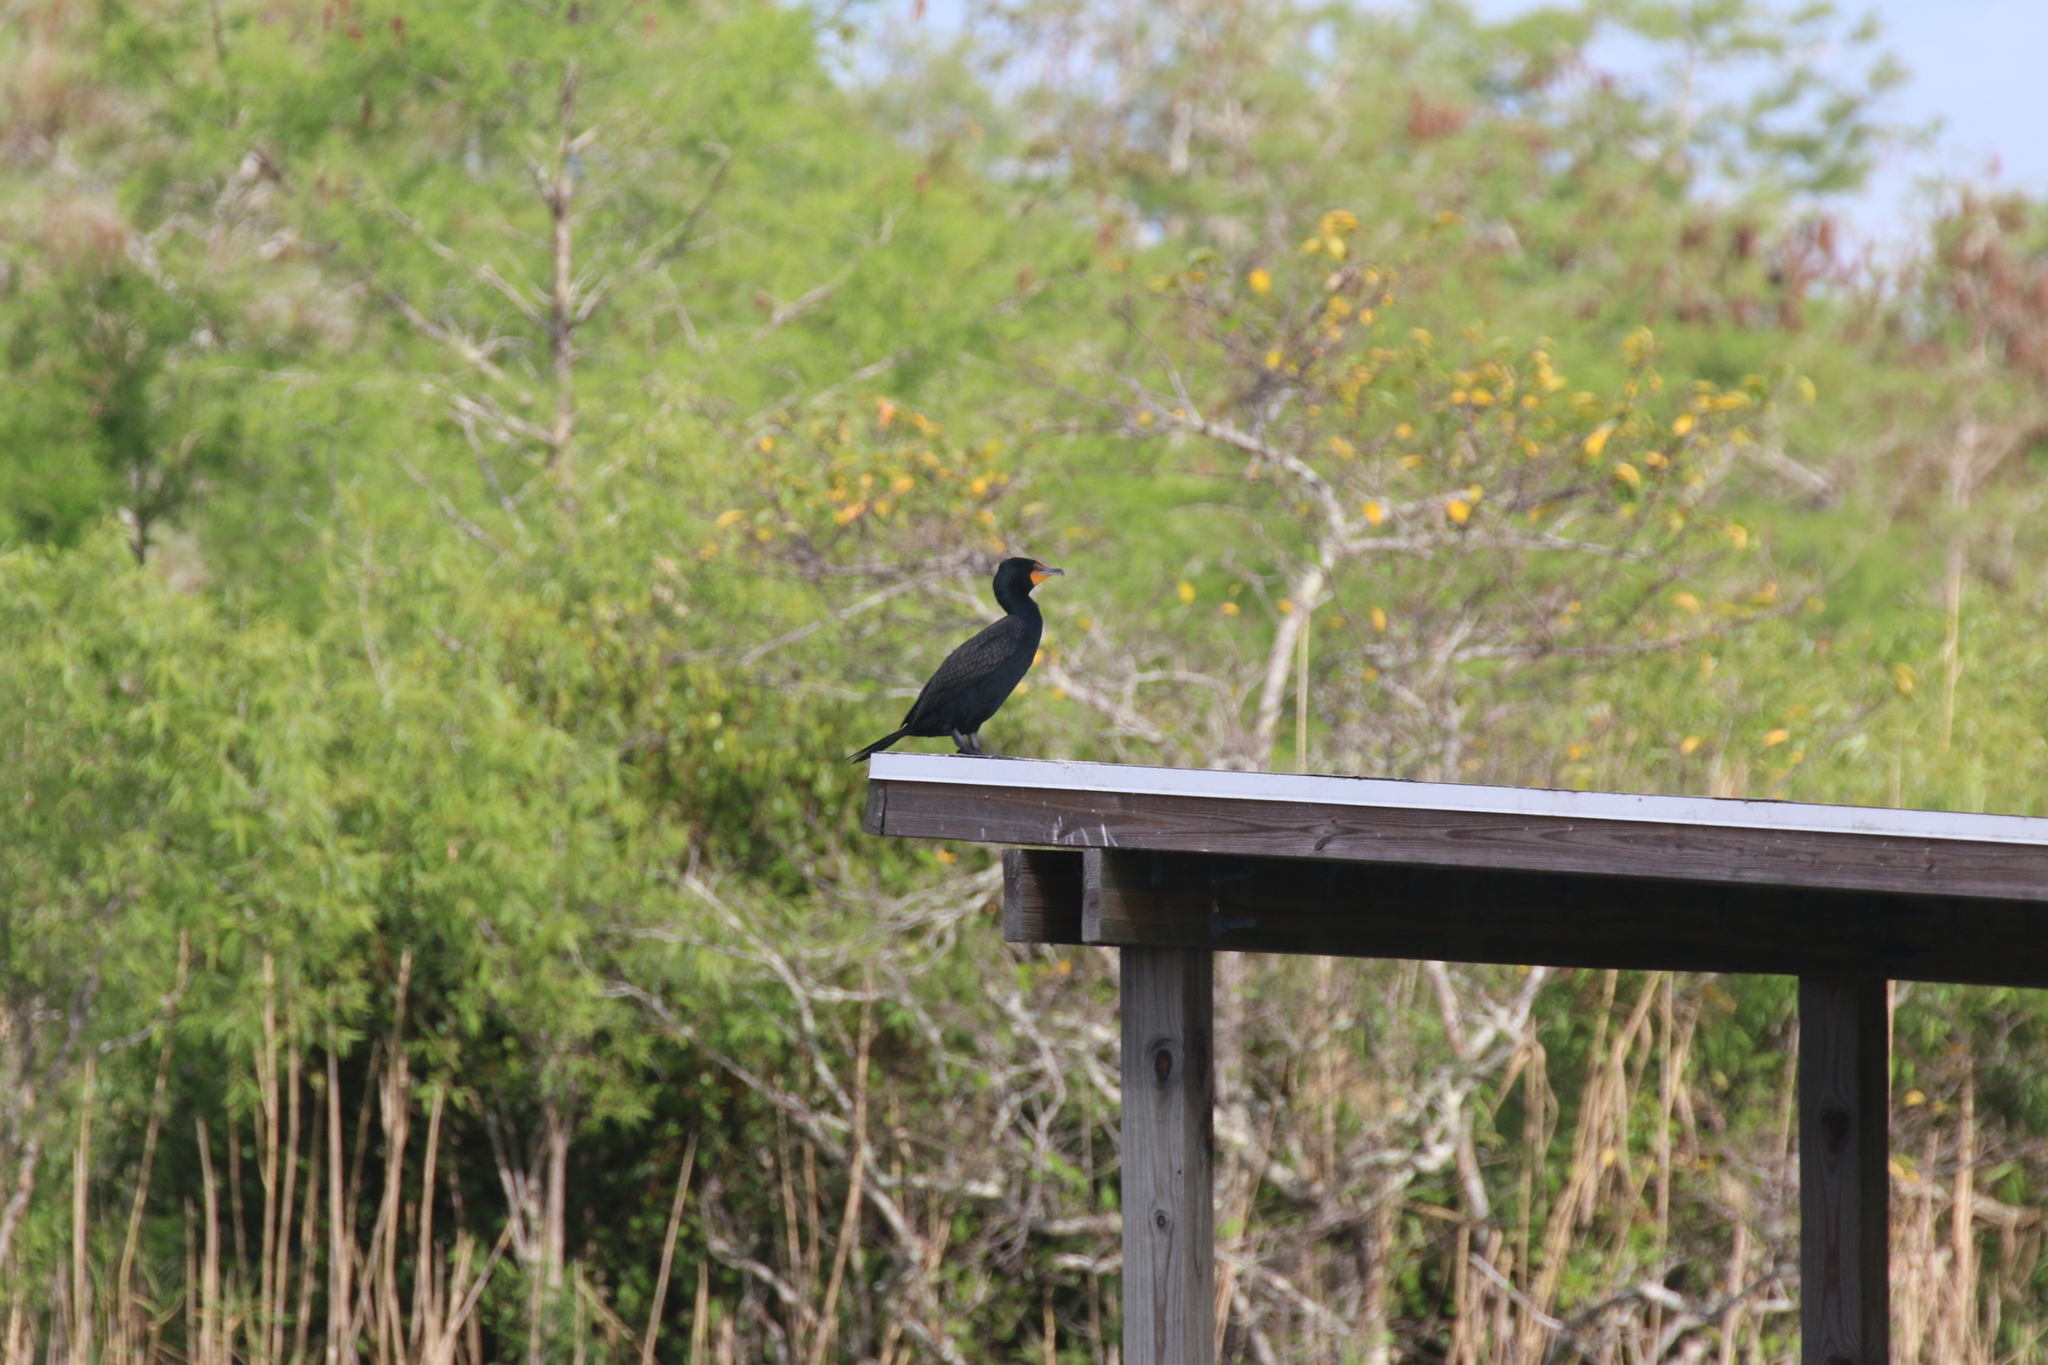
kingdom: Animalia
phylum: Chordata
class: Aves
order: Suliformes
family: Phalacrocoracidae
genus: Phalacrocorax
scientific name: Phalacrocorax auritus
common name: Double-crested cormorant
